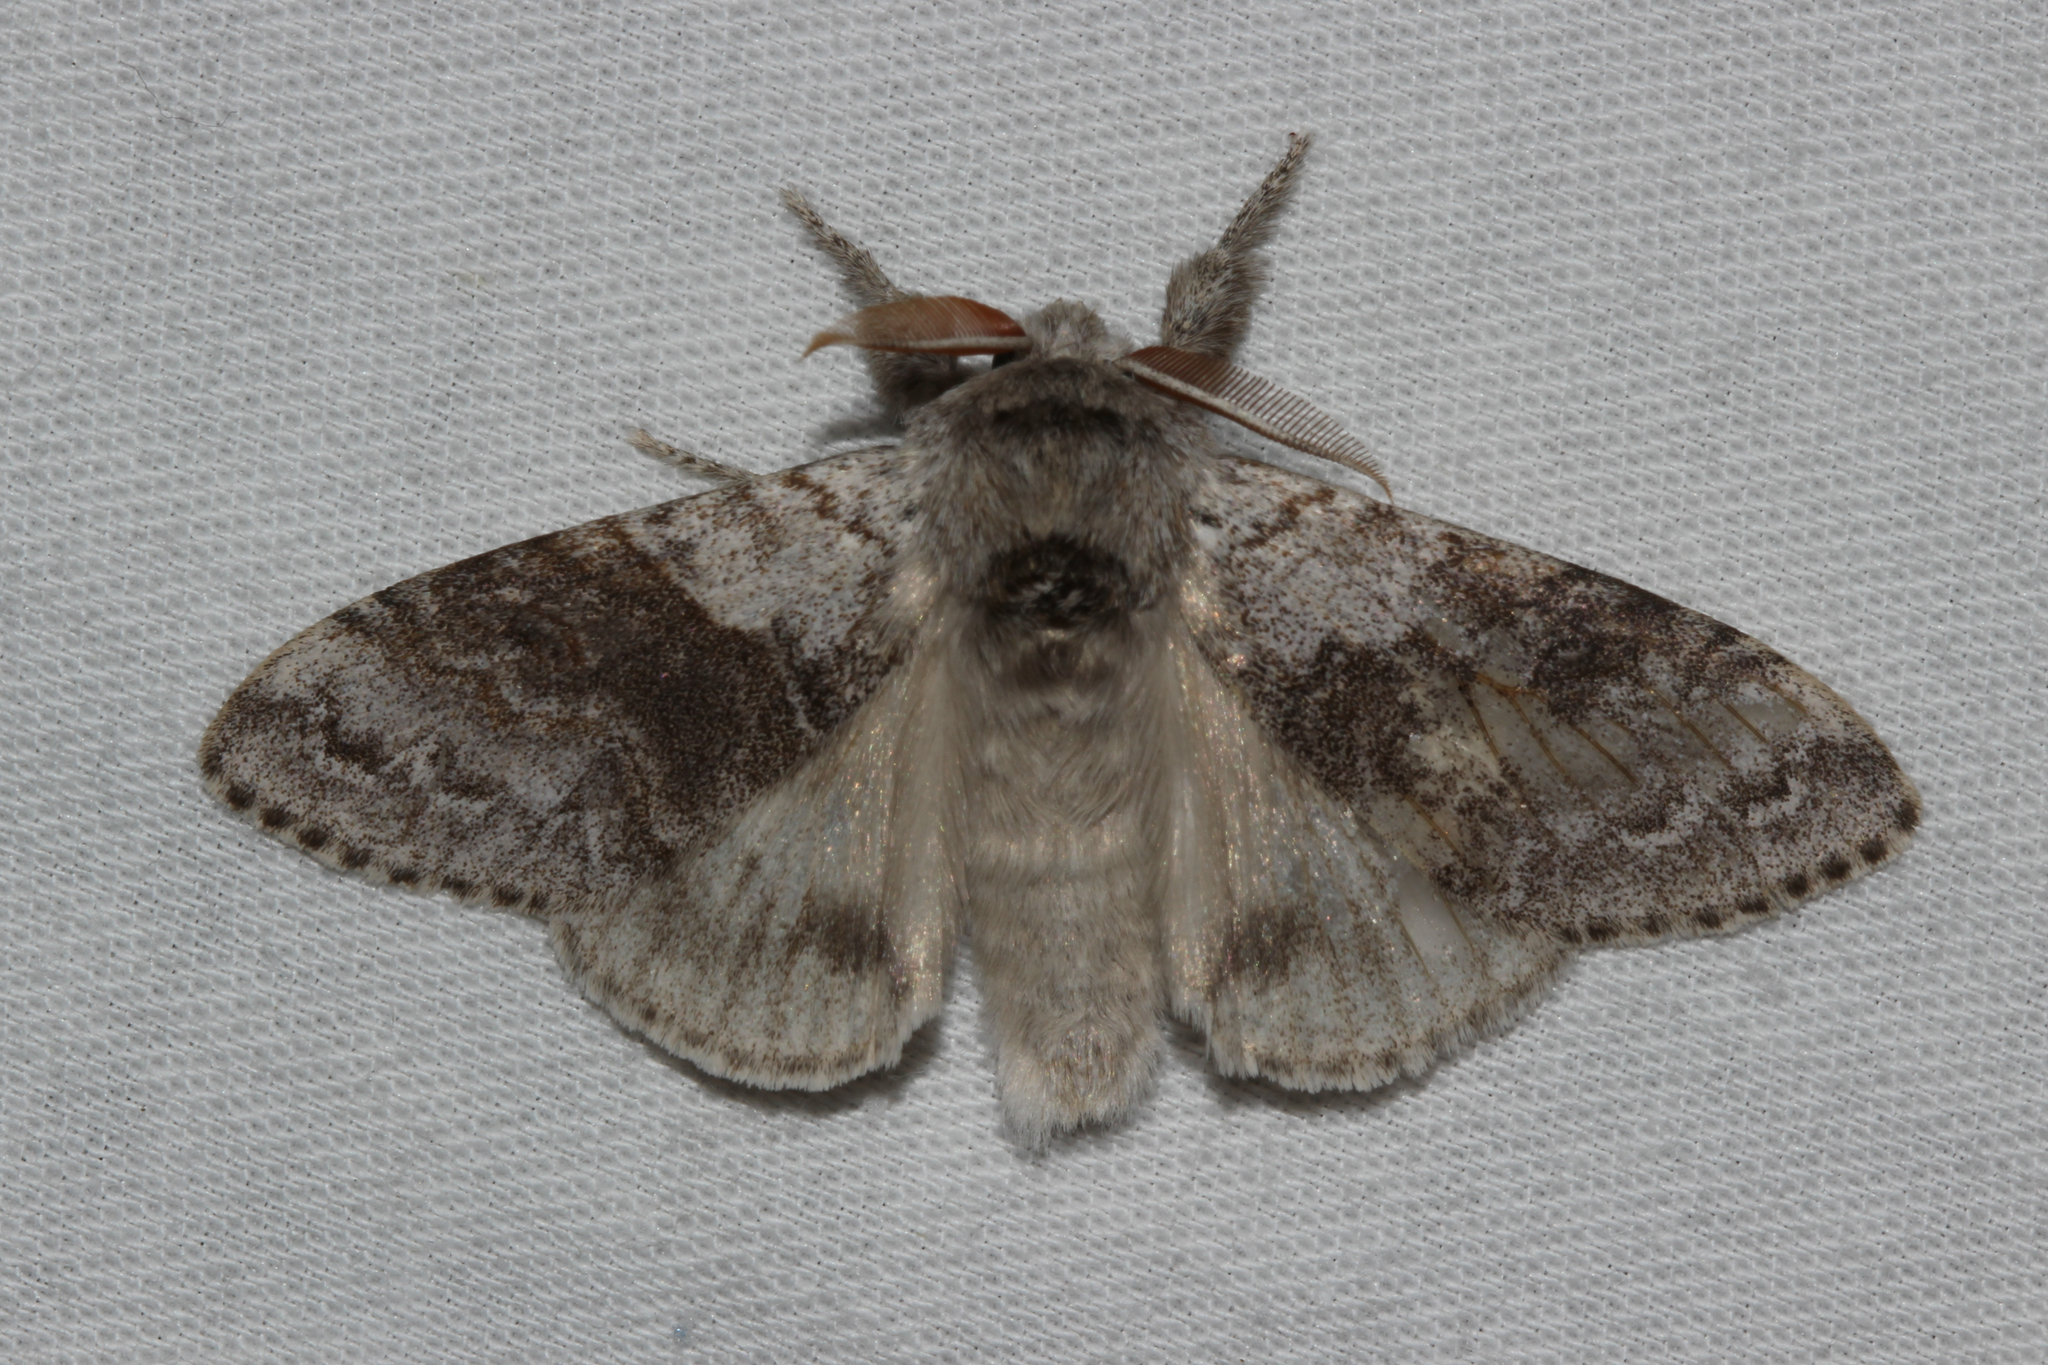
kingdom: Animalia
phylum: Arthropoda
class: Insecta
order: Lepidoptera
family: Erebidae
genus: Calliteara
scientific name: Calliteara pudibunda
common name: Pale tussock
